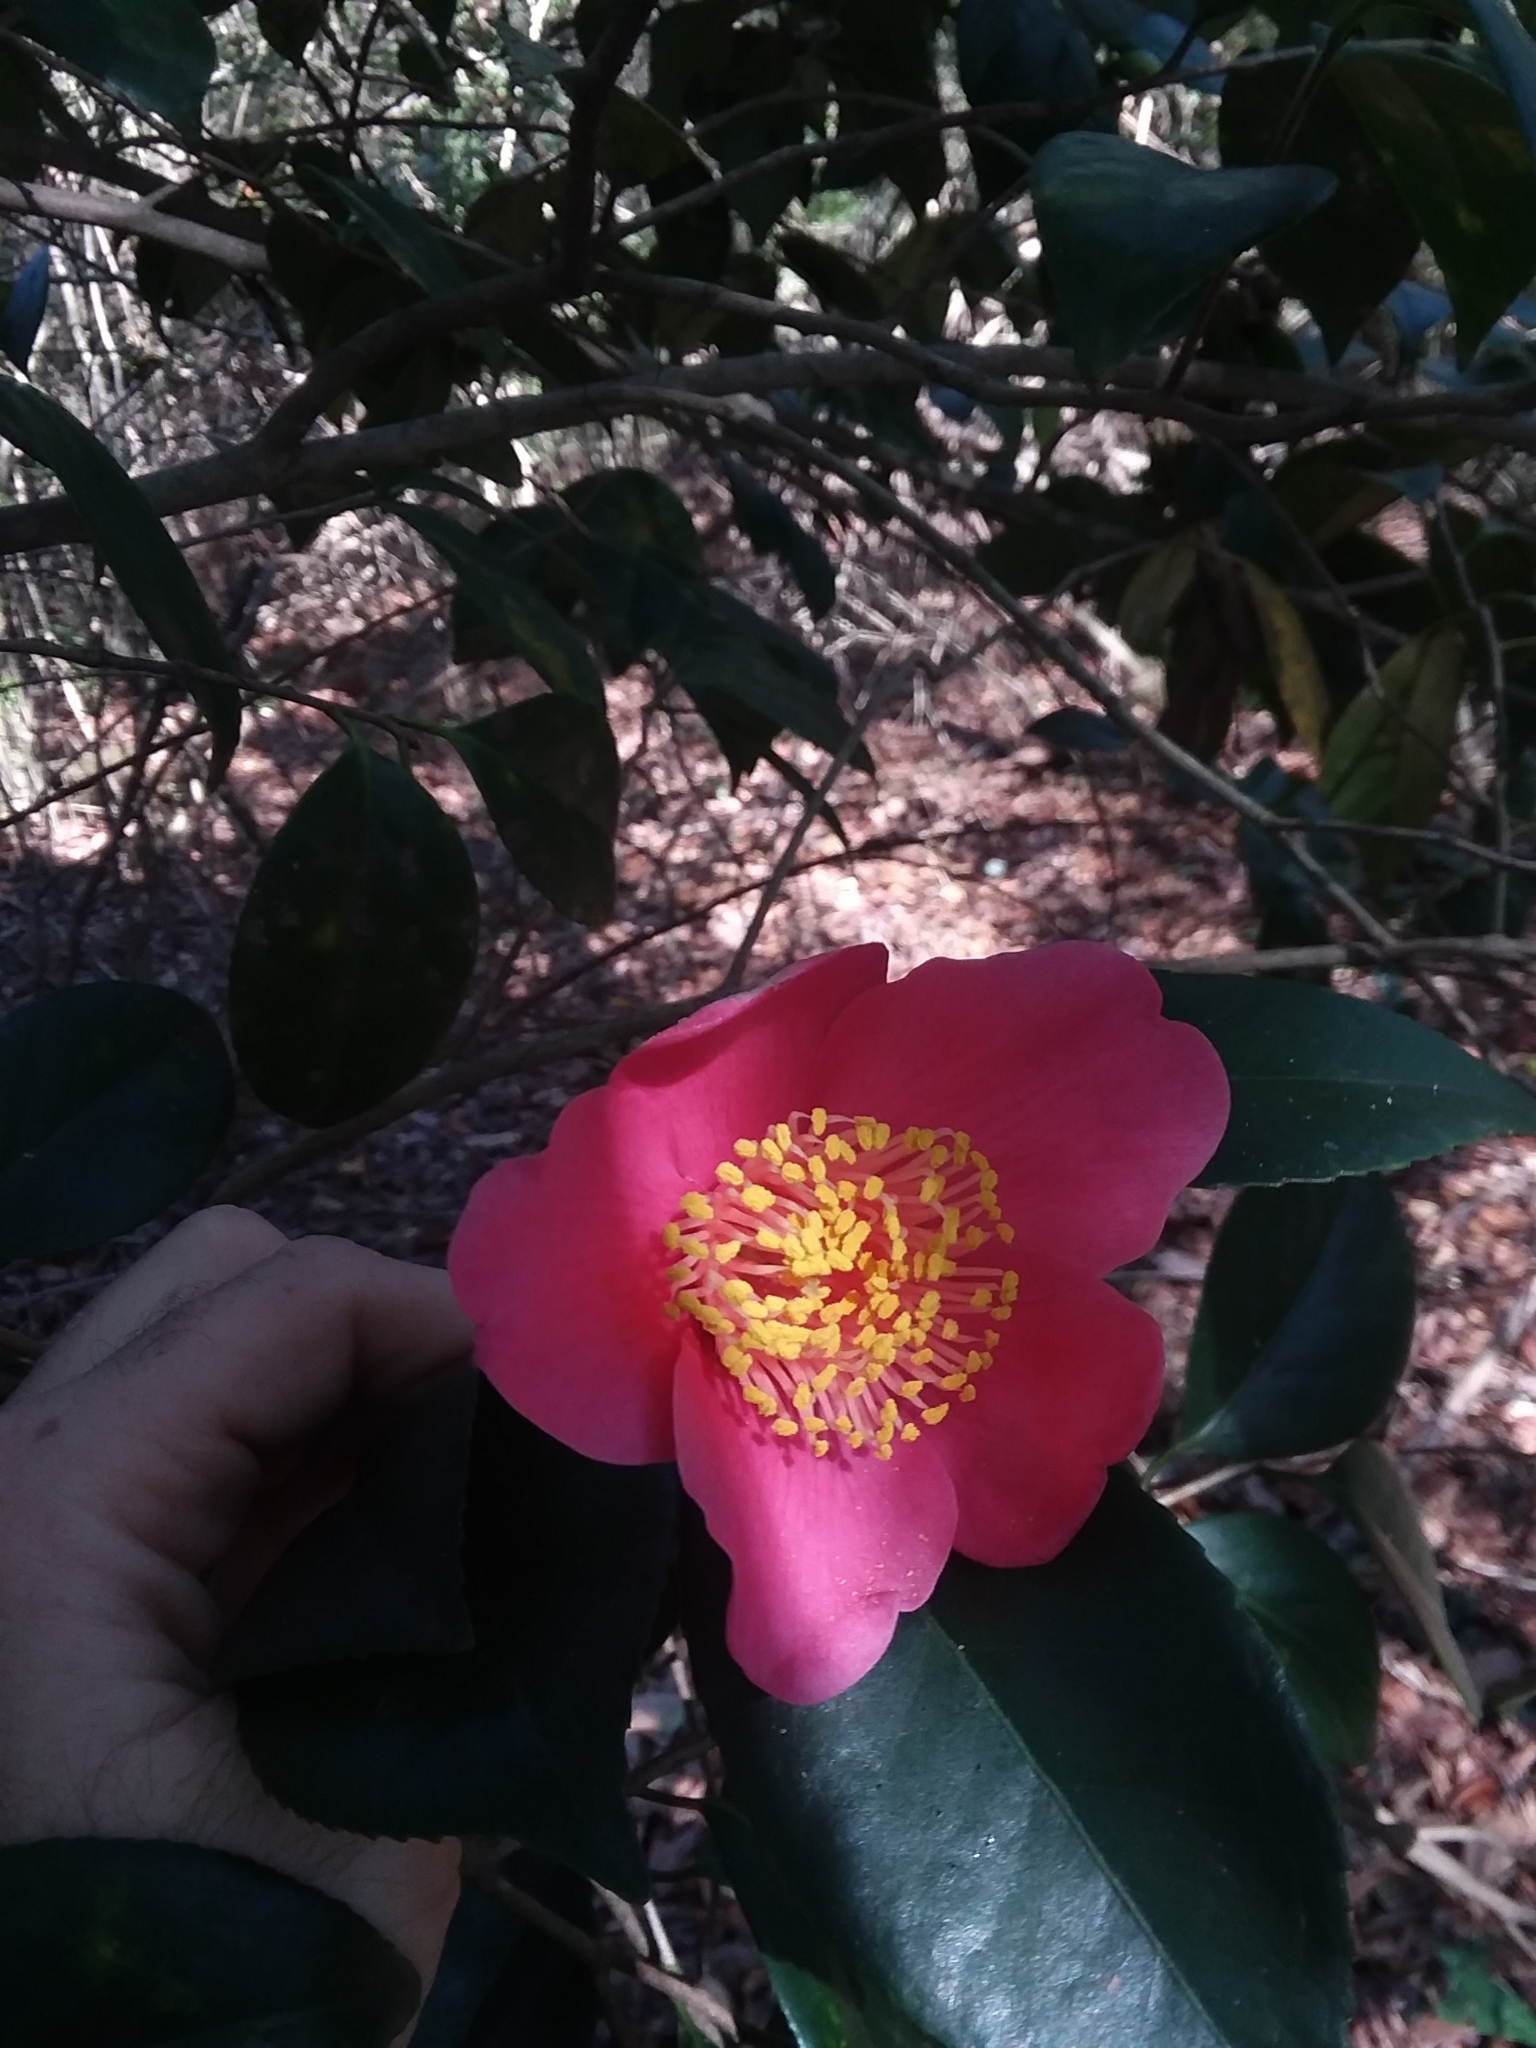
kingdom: Plantae
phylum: Tracheophyta
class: Magnoliopsida
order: Ericales
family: Theaceae
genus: Camellia
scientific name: Camellia japonica
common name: Camellia
